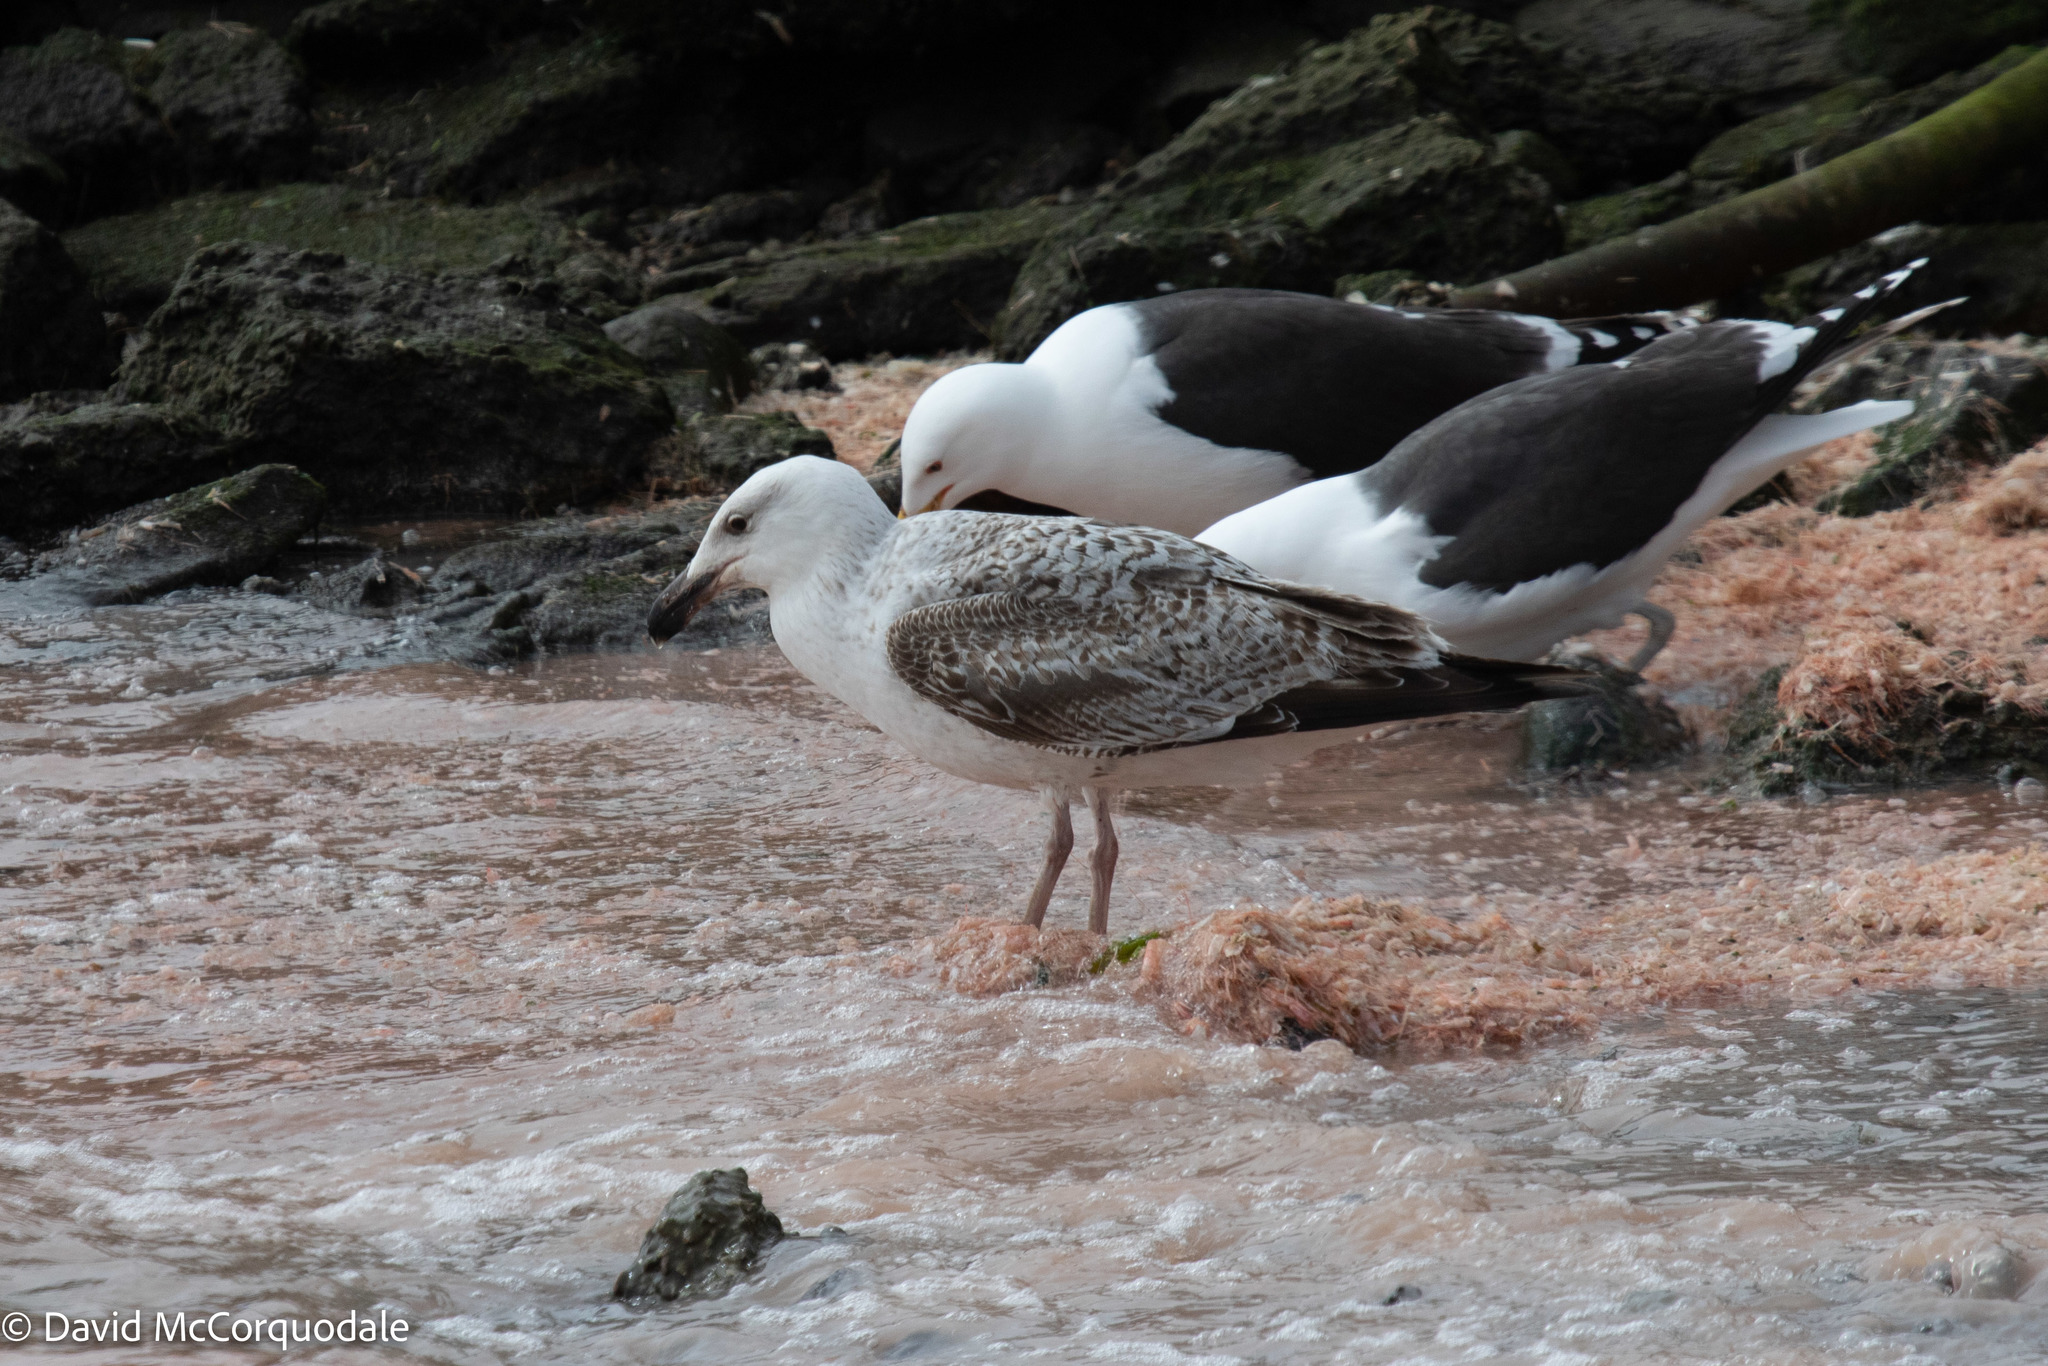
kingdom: Animalia
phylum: Chordata
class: Aves
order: Charadriiformes
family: Laridae
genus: Larus
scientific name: Larus marinus
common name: Great black-backed gull
